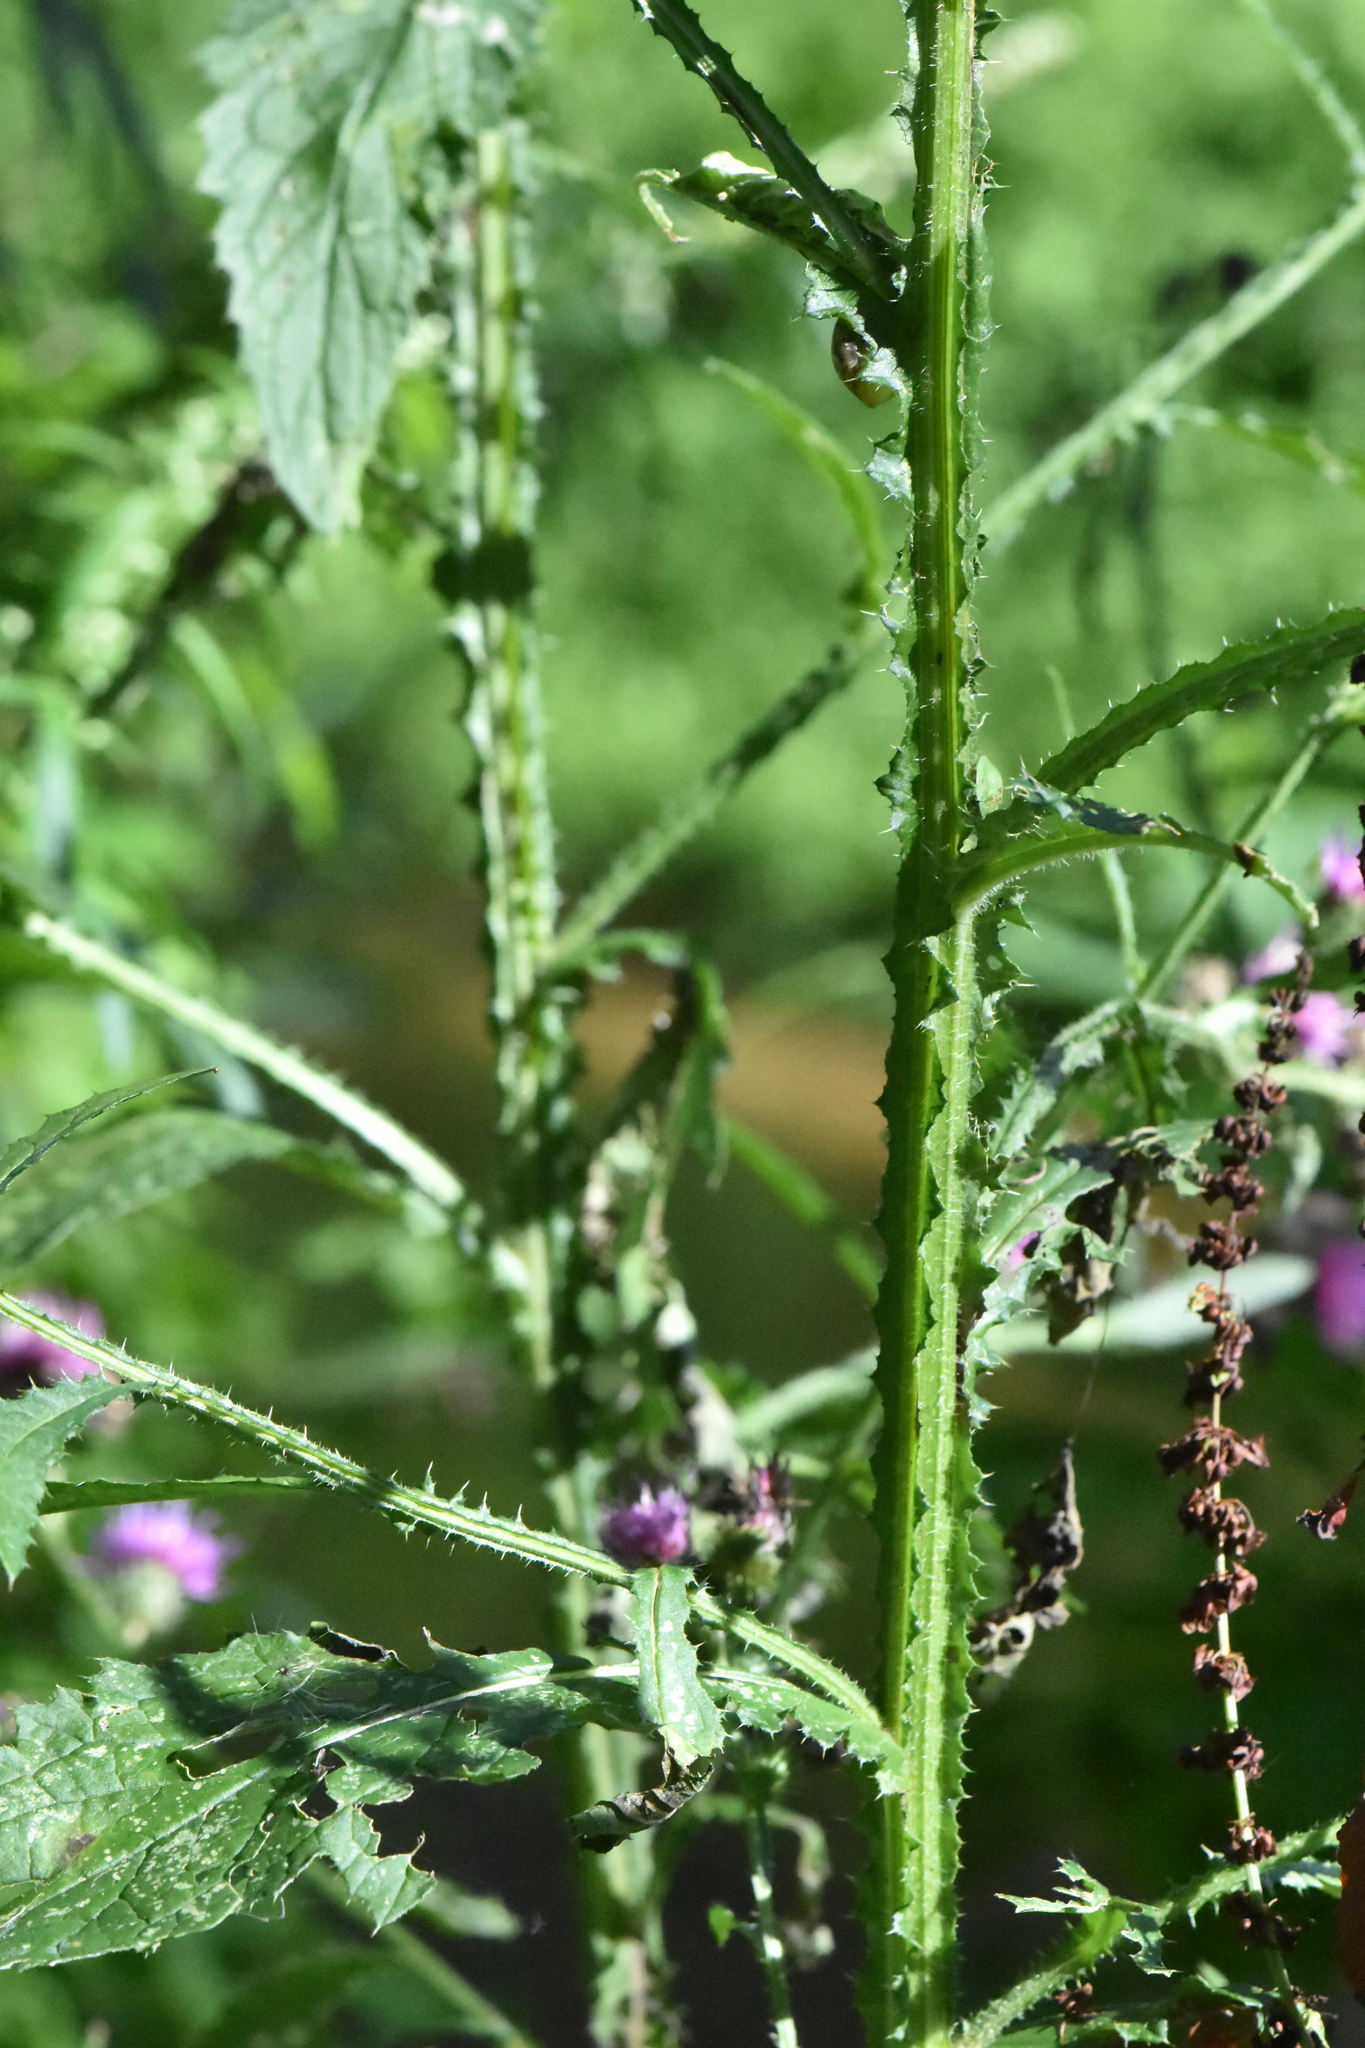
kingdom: Plantae
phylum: Tracheophyta
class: Magnoliopsida
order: Asterales
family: Asteraceae
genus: Carduus
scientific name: Carduus crispus
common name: Welted thistle
